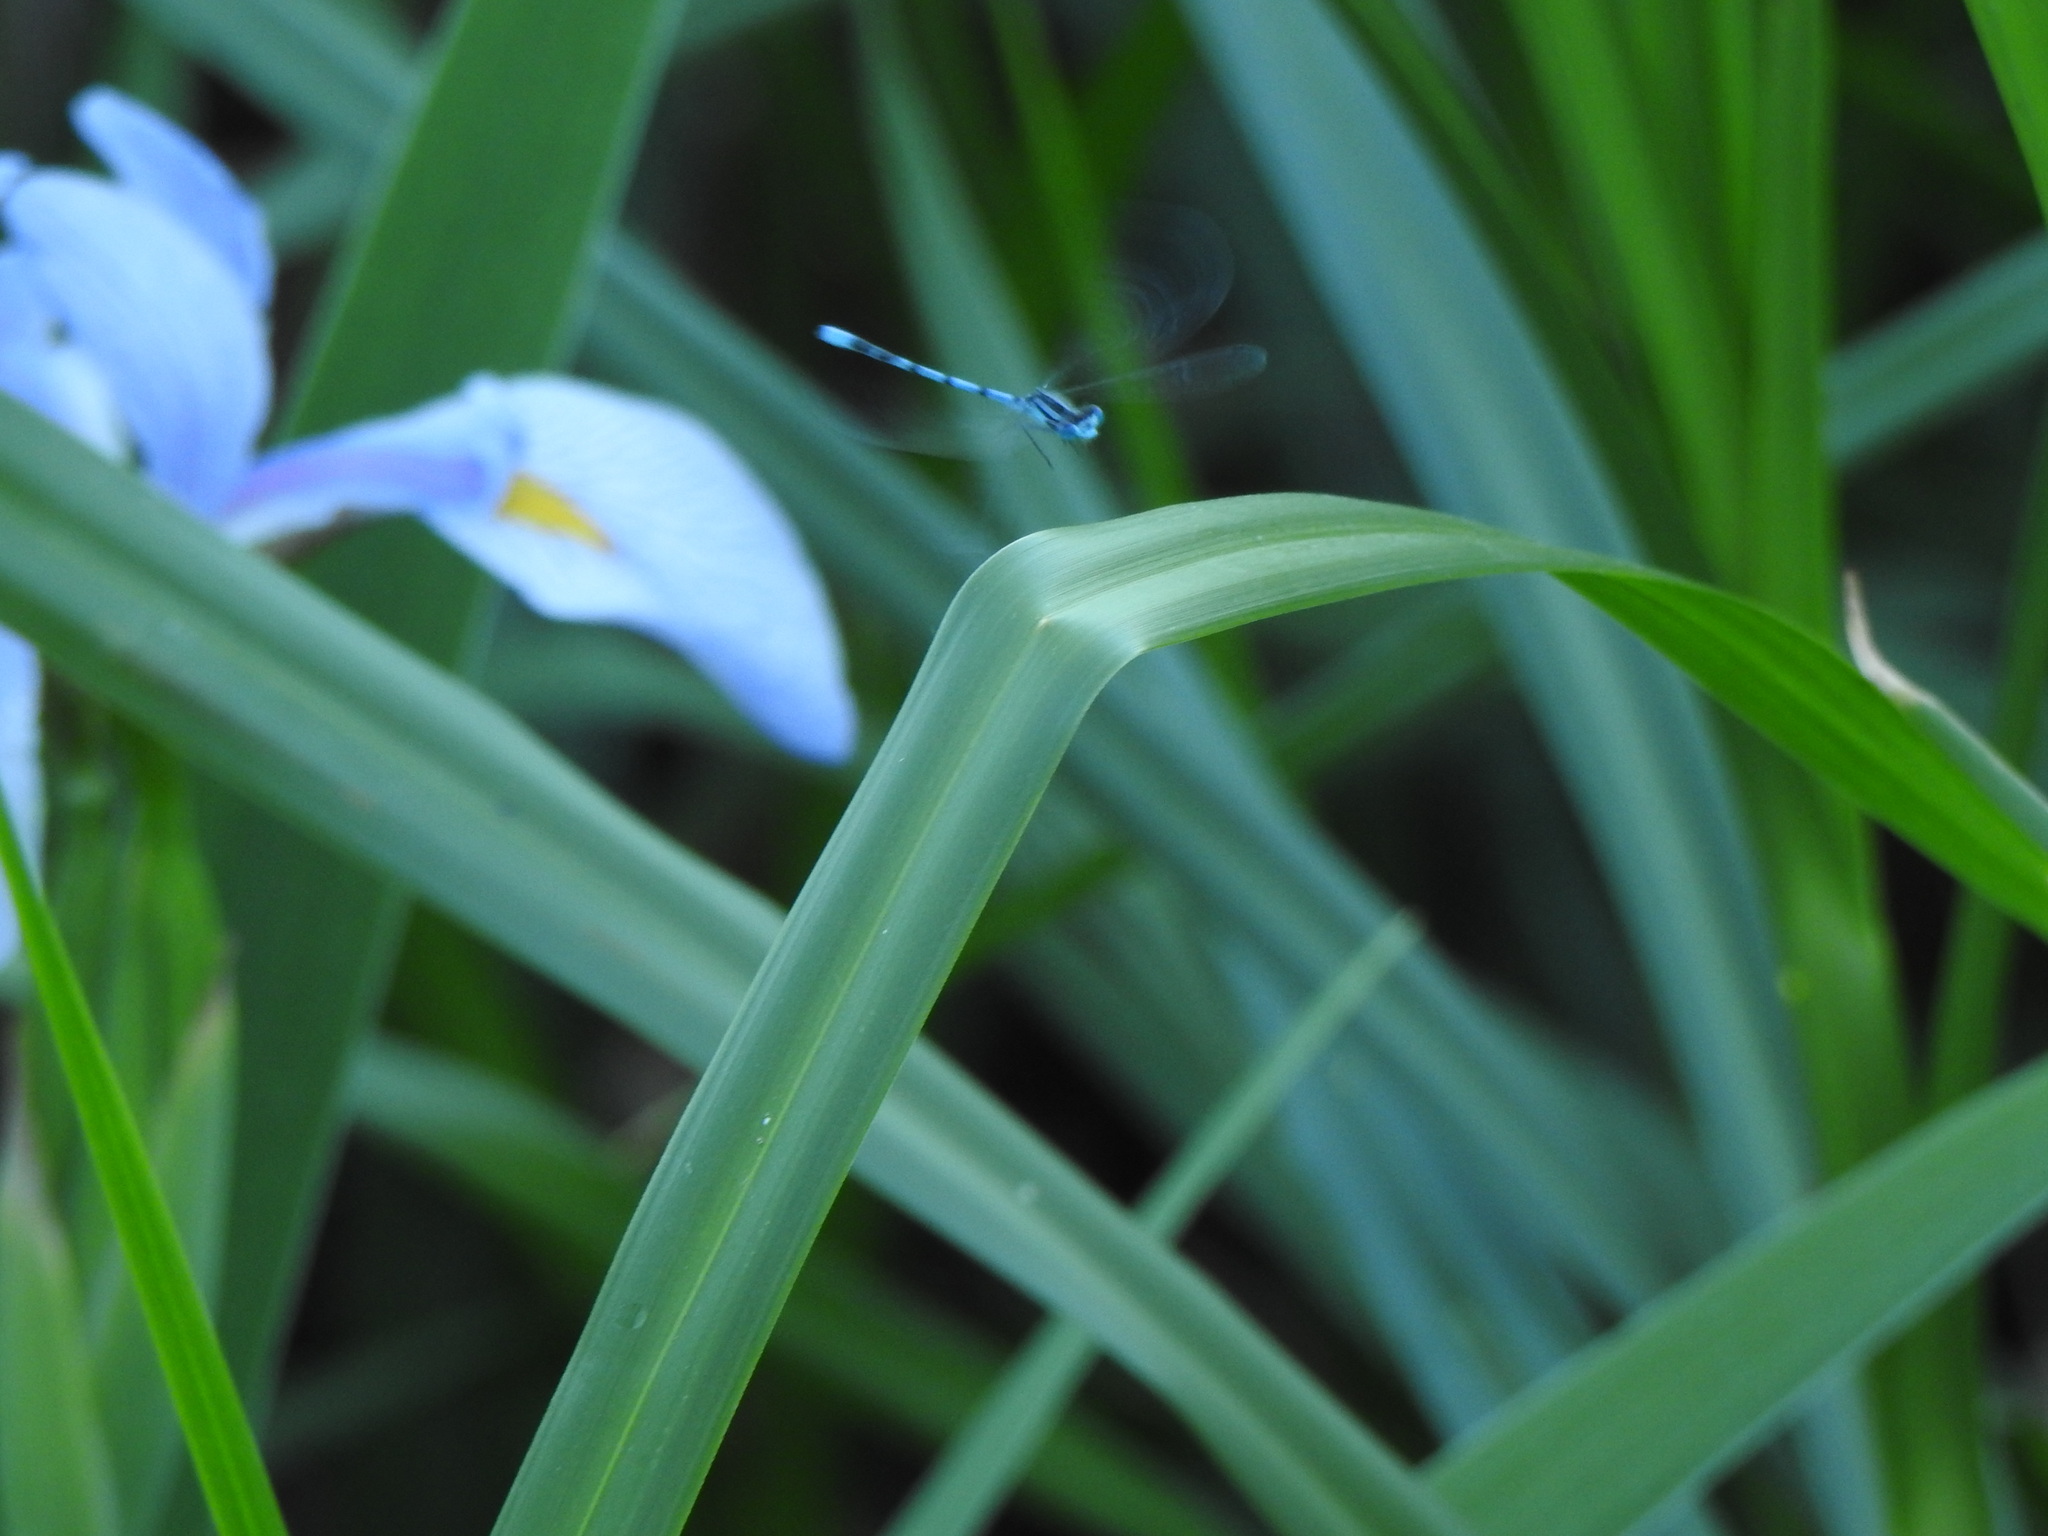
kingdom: Animalia
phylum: Arthropoda
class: Insecta
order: Odonata
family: Coenagrionidae
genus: Enallagma
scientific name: Enallagma
